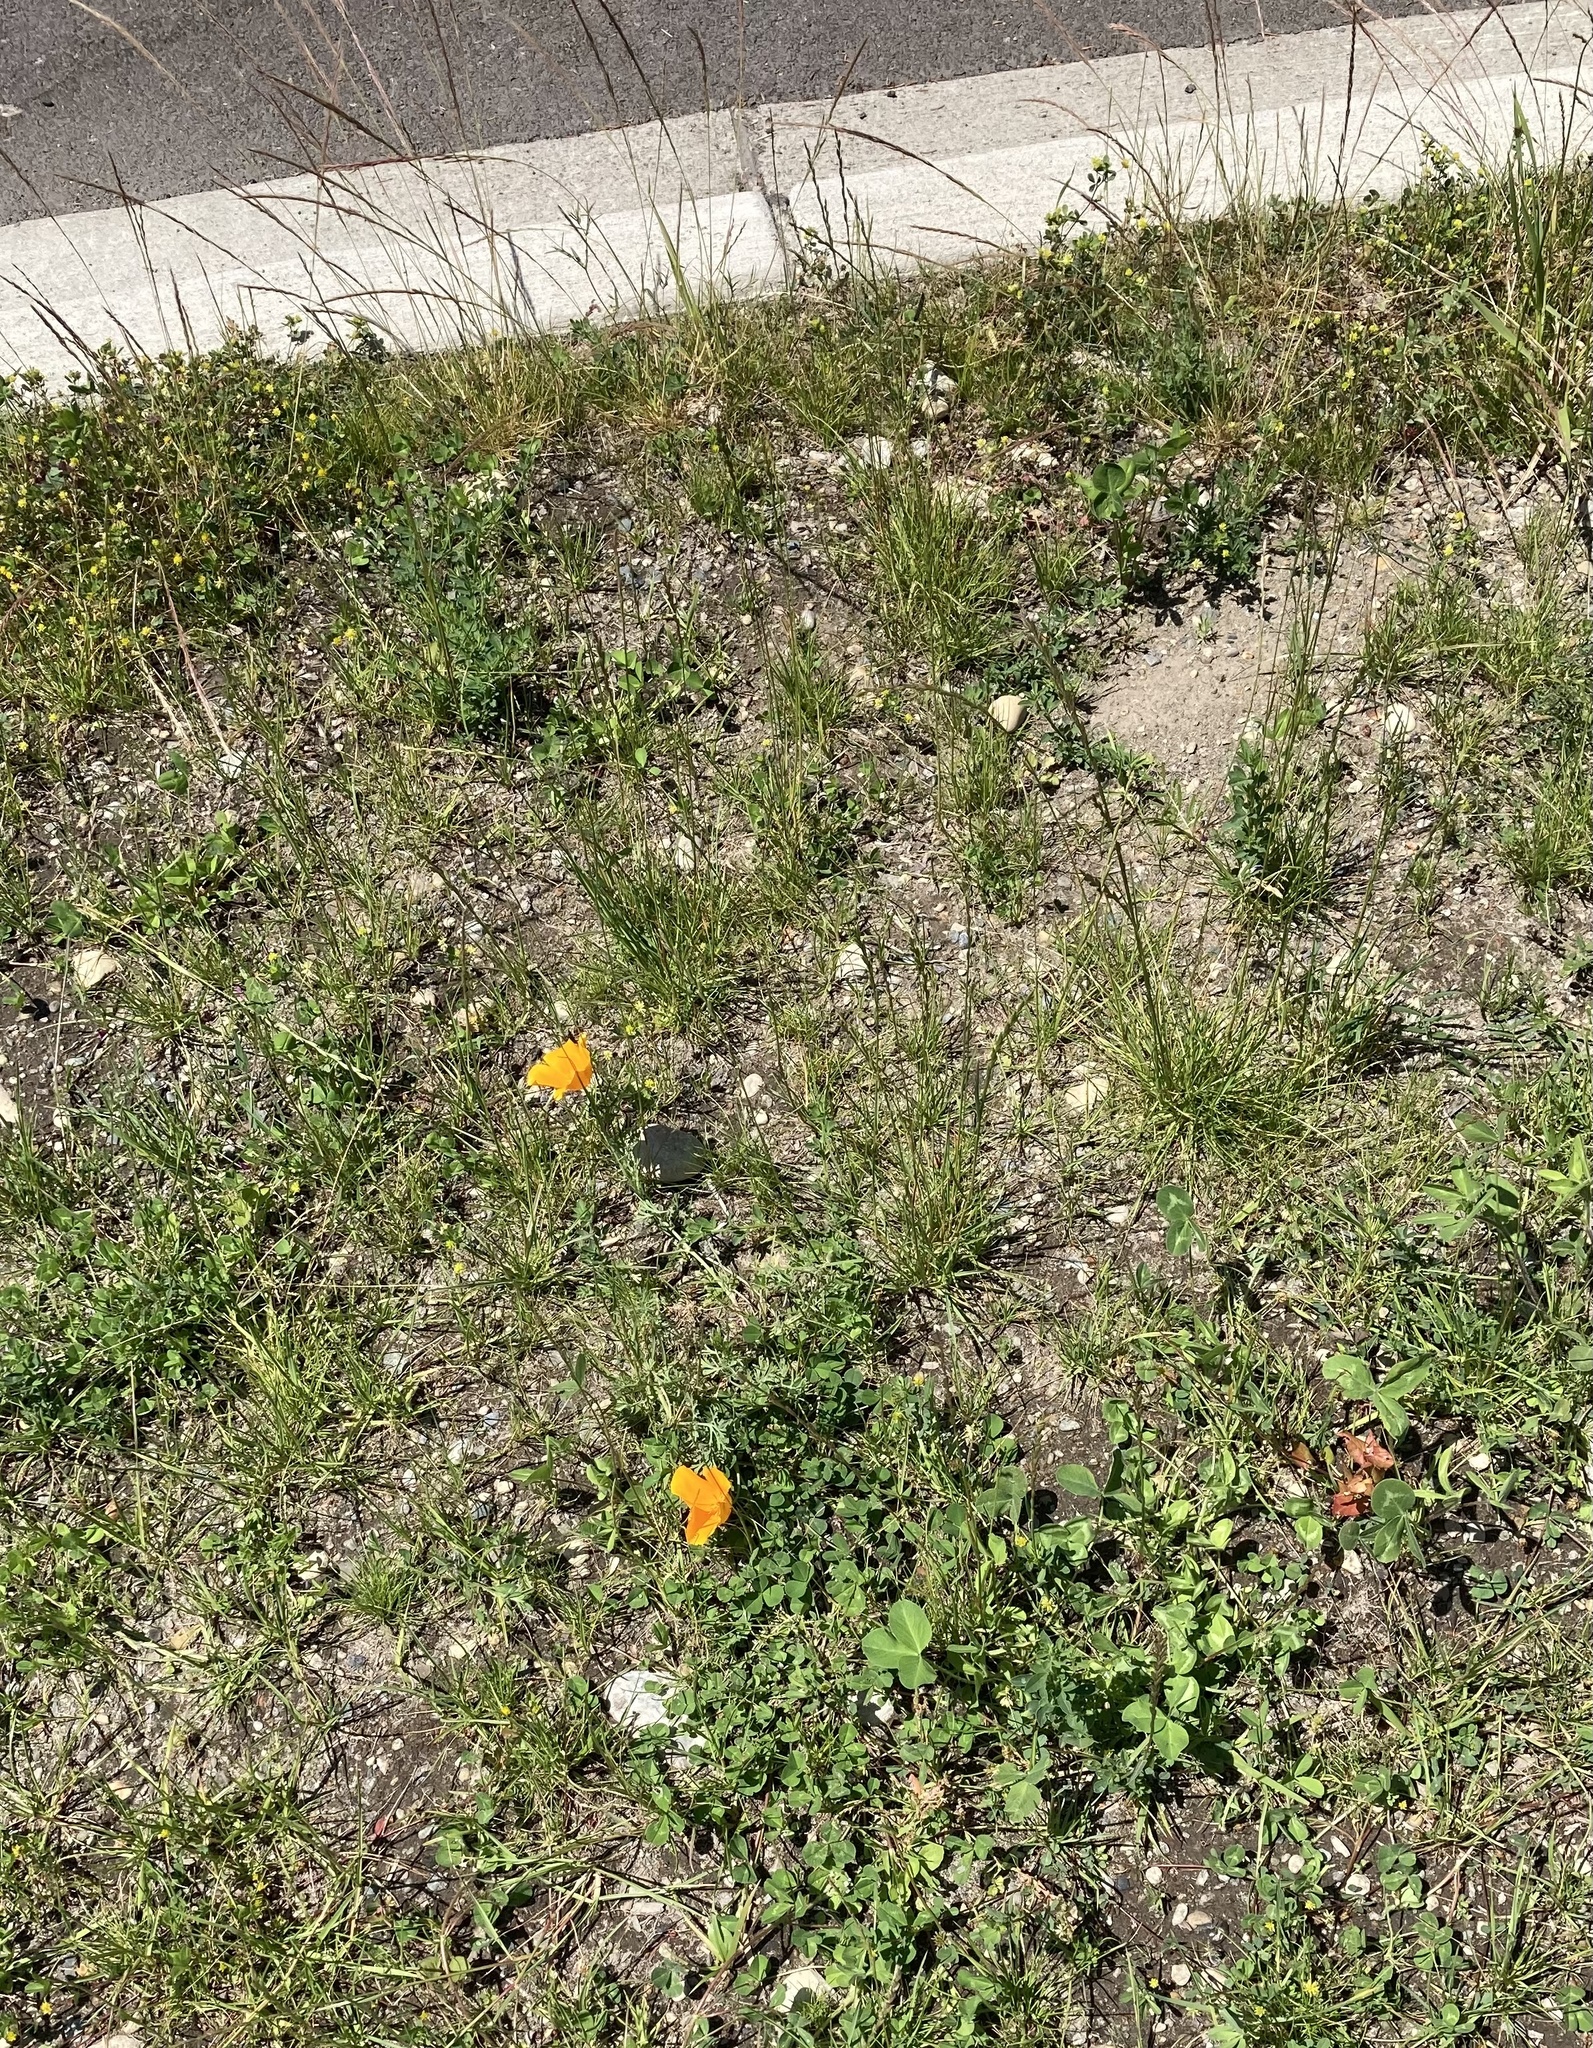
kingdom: Plantae
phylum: Tracheophyta
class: Magnoliopsida
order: Ranunculales
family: Papaveraceae
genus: Eschscholzia
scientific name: Eschscholzia californica
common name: California poppy
